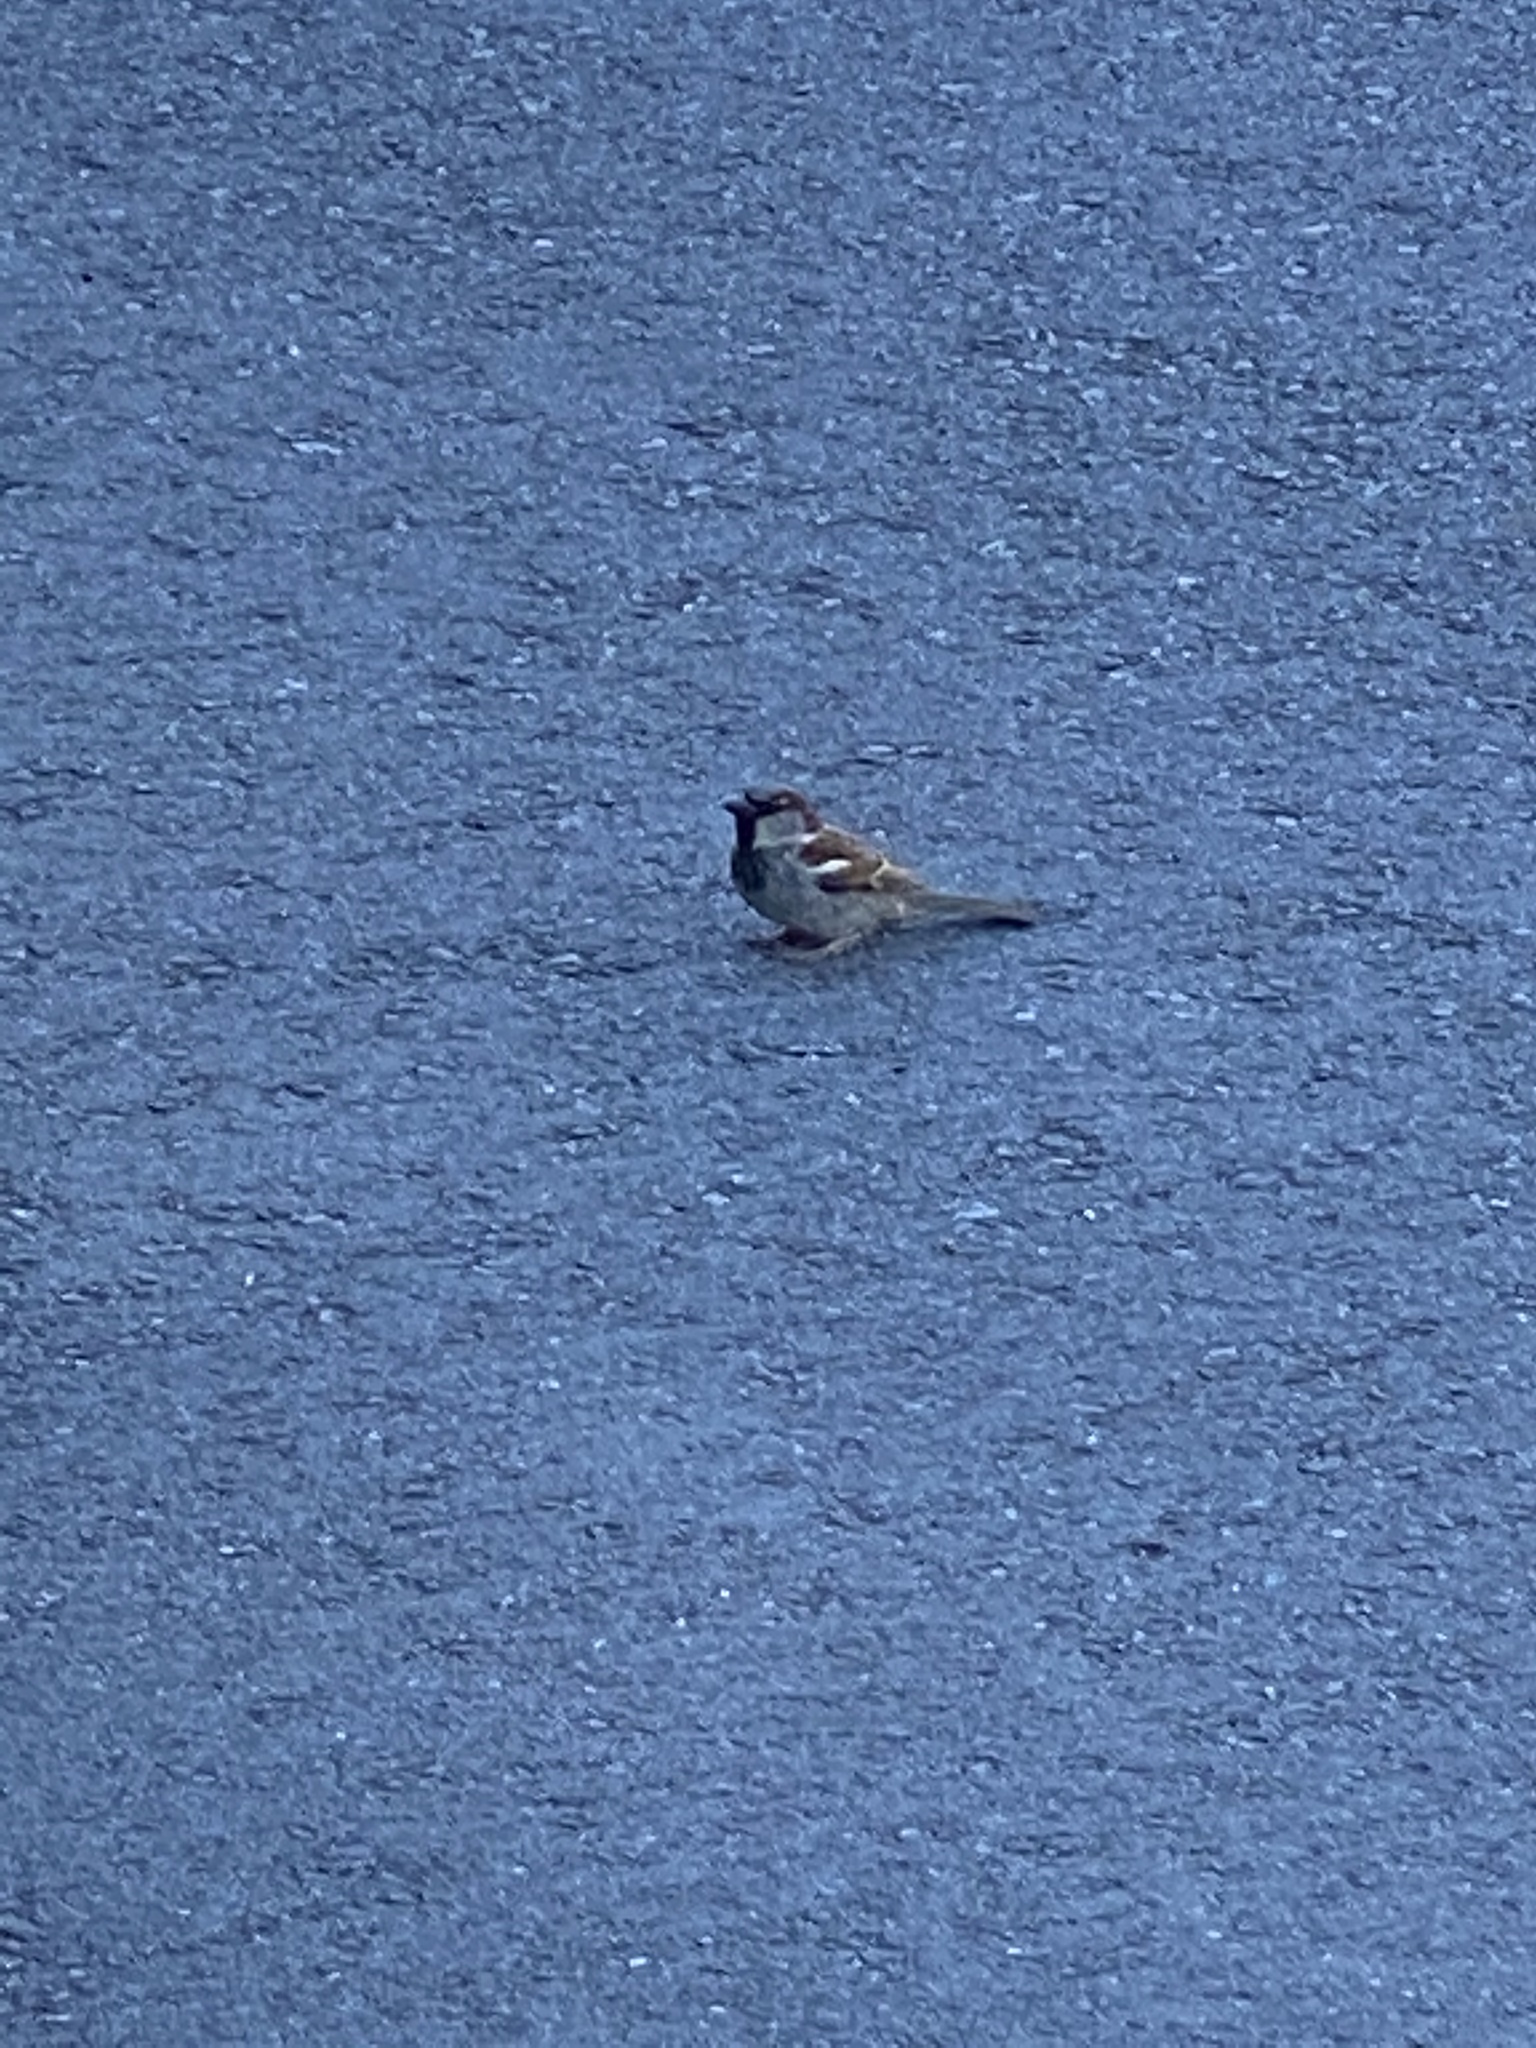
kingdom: Animalia
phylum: Chordata
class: Aves
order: Passeriformes
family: Passeridae
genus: Passer
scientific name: Passer domesticus
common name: House sparrow
